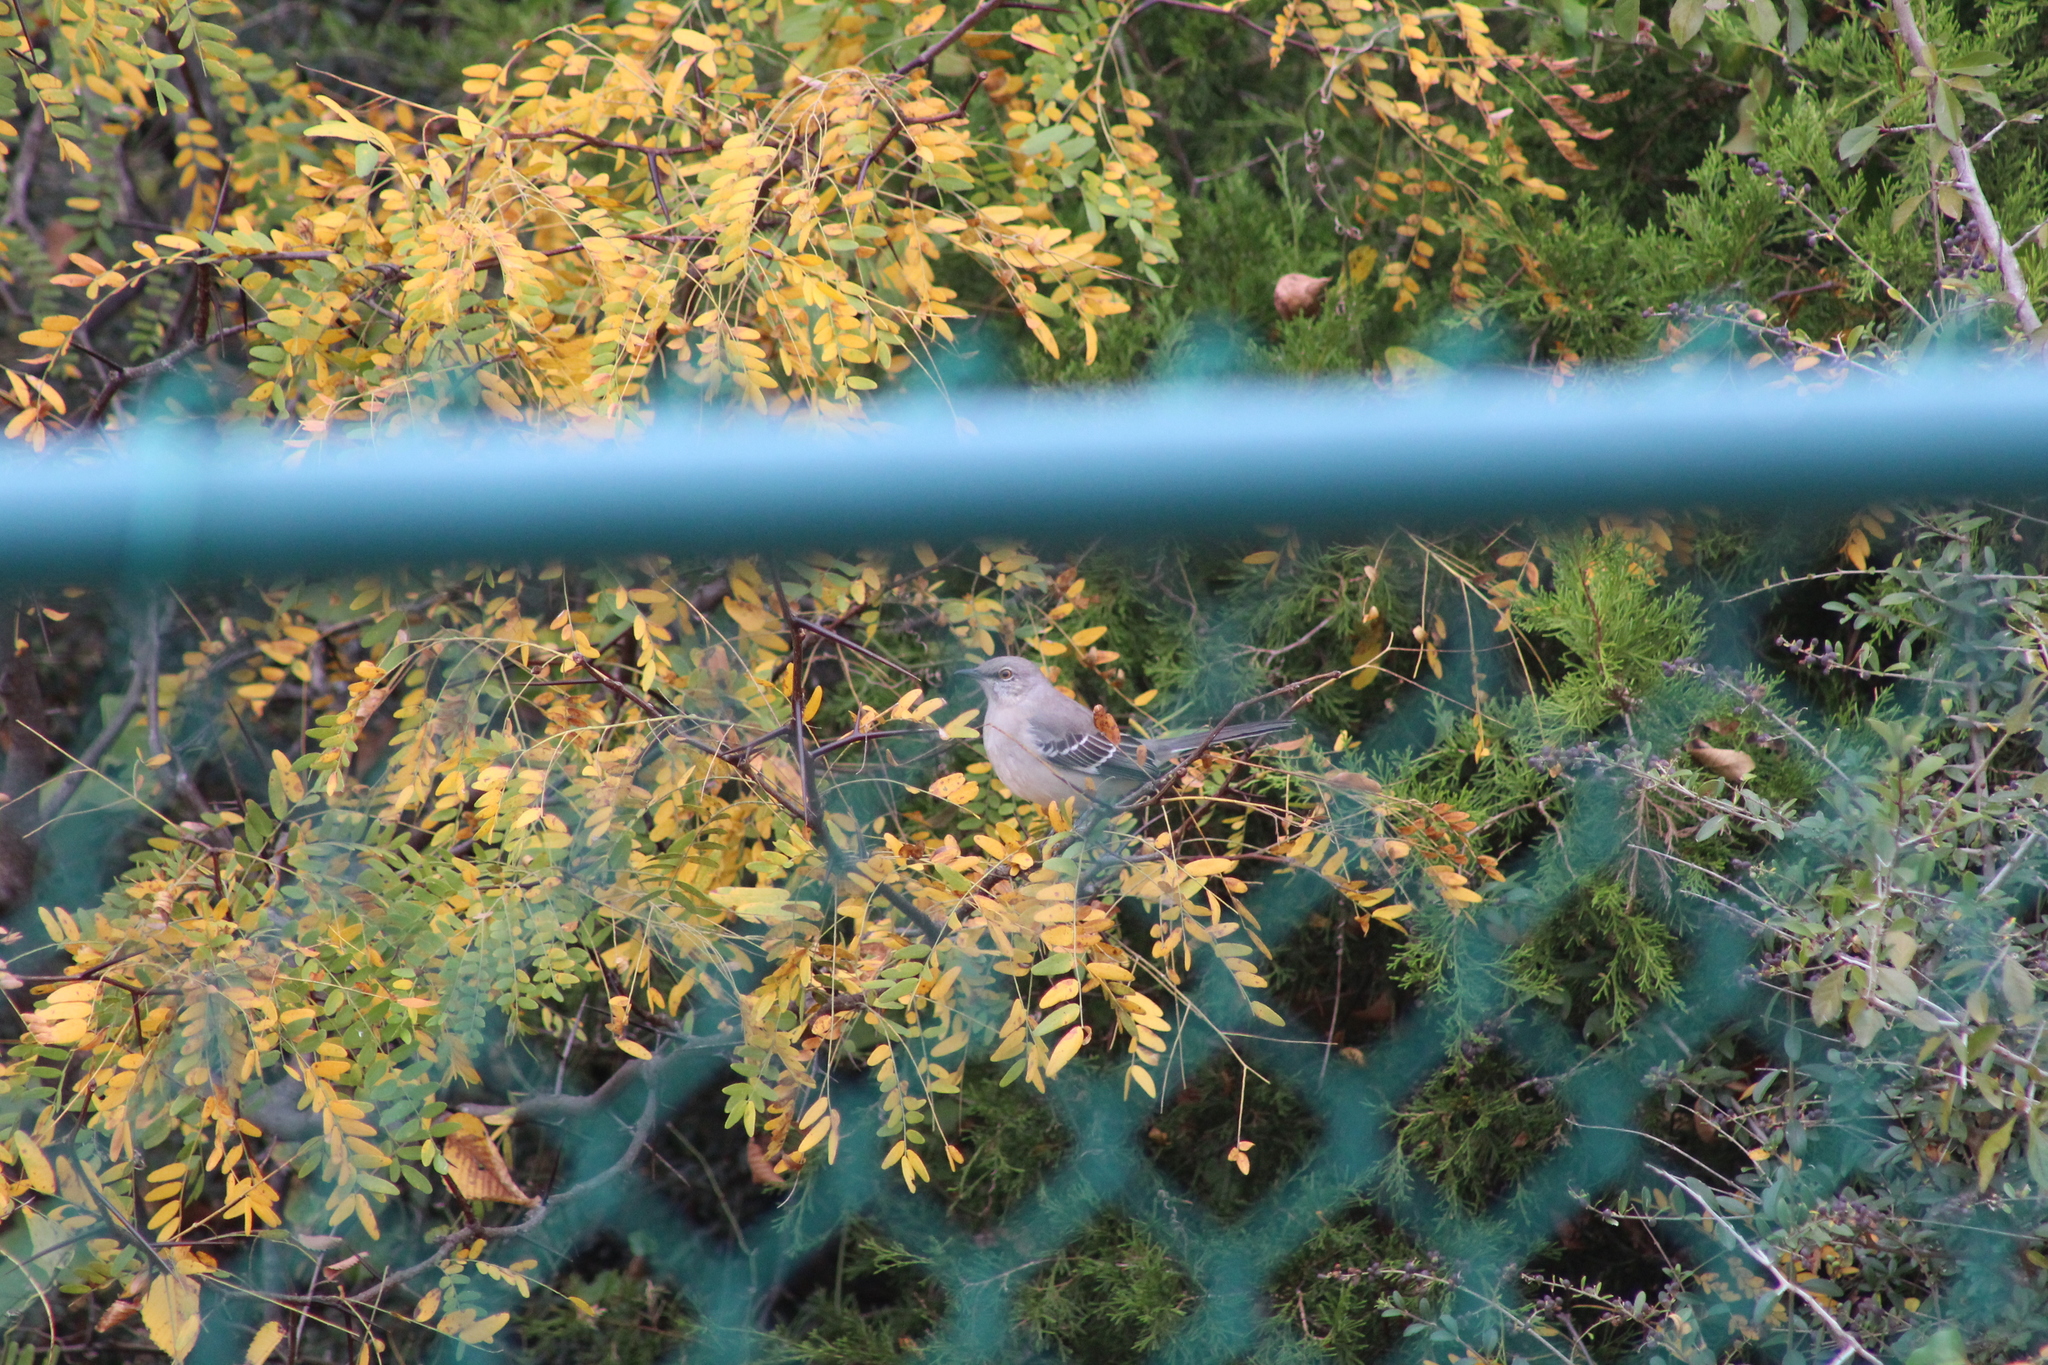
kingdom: Animalia
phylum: Chordata
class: Aves
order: Passeriformes
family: Mimidae
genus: Mimus
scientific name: Mimus polyglottos
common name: Northern mockingbird
